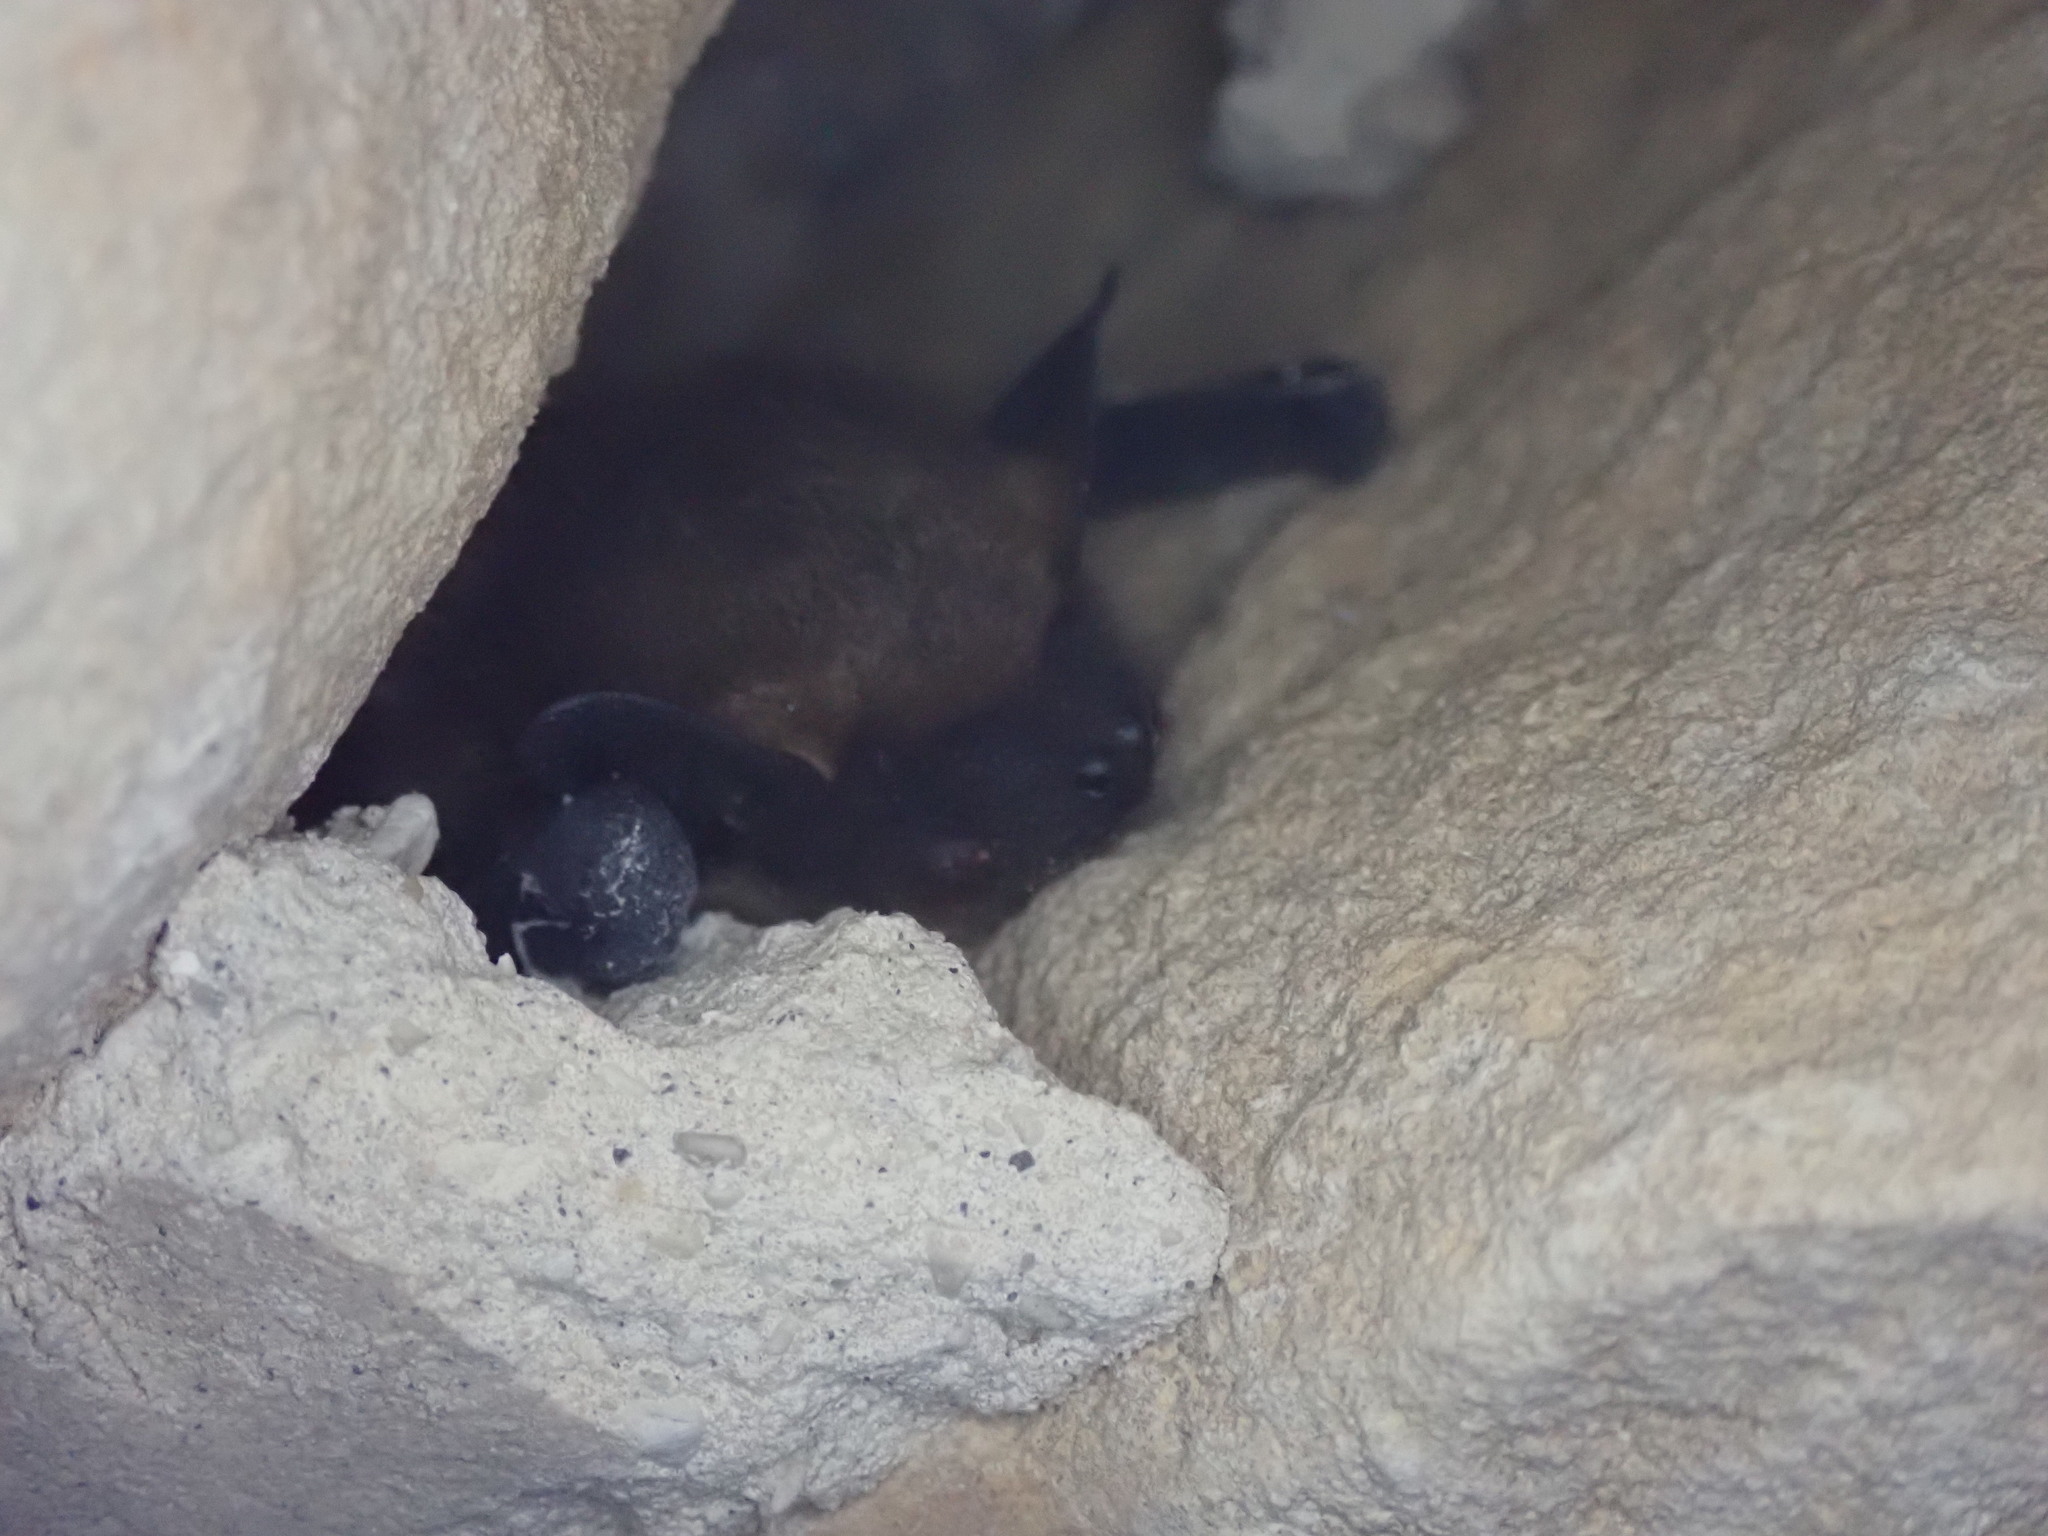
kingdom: Animalia
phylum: Chordata
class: Mammalia
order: Chiroptera
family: Vespertilionidae
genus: Eptesicus
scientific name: Eptesicus serotinus
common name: Serotine
